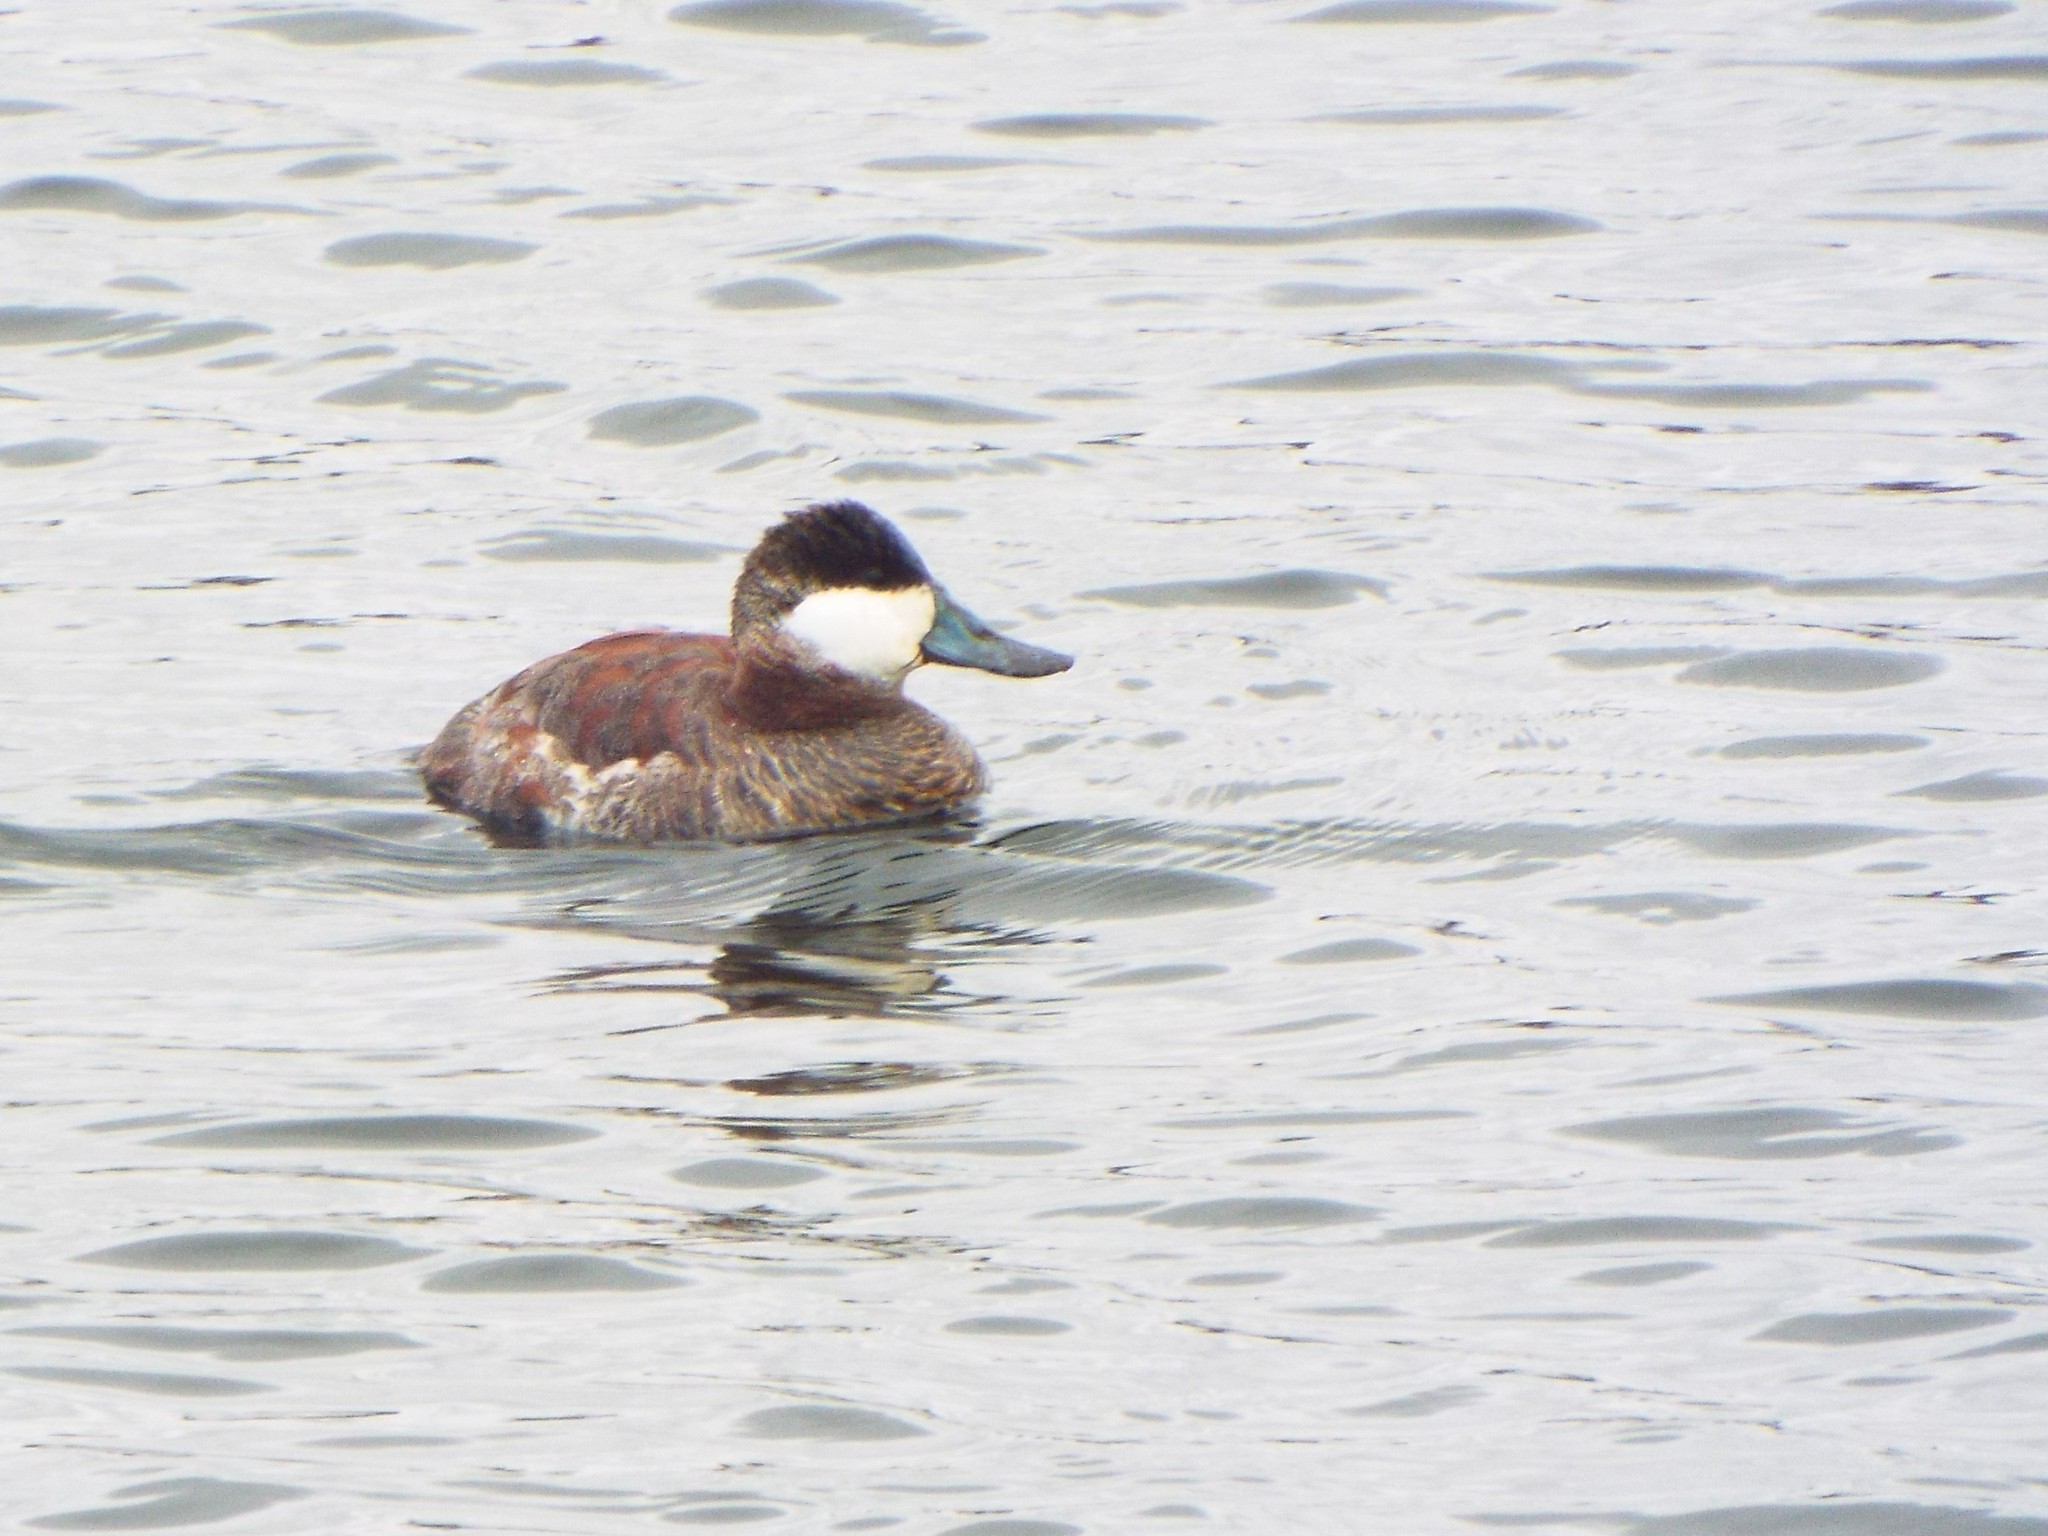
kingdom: Animalia
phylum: Chordata
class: Aves
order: Anseriformes
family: Anatidae
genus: Oxyura
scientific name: Oxyura jamaicensis
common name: Ruddy duck
